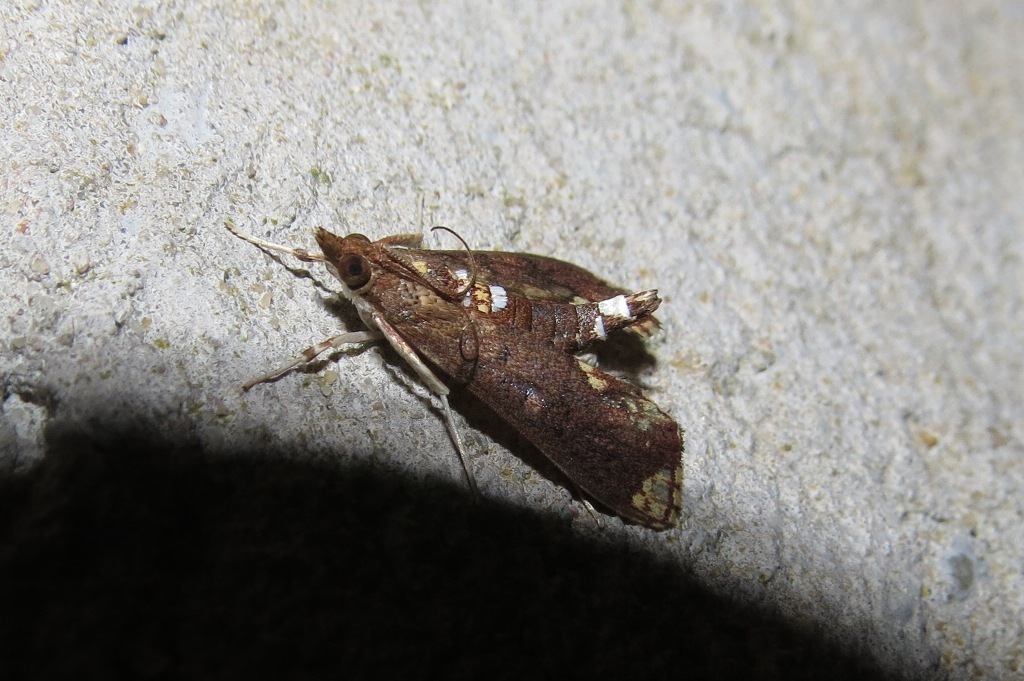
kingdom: Animalia
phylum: Arthropoda
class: Insecta
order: Lepidoptera
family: Crambidae
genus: Liopasia
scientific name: Liopasia apicenotata
